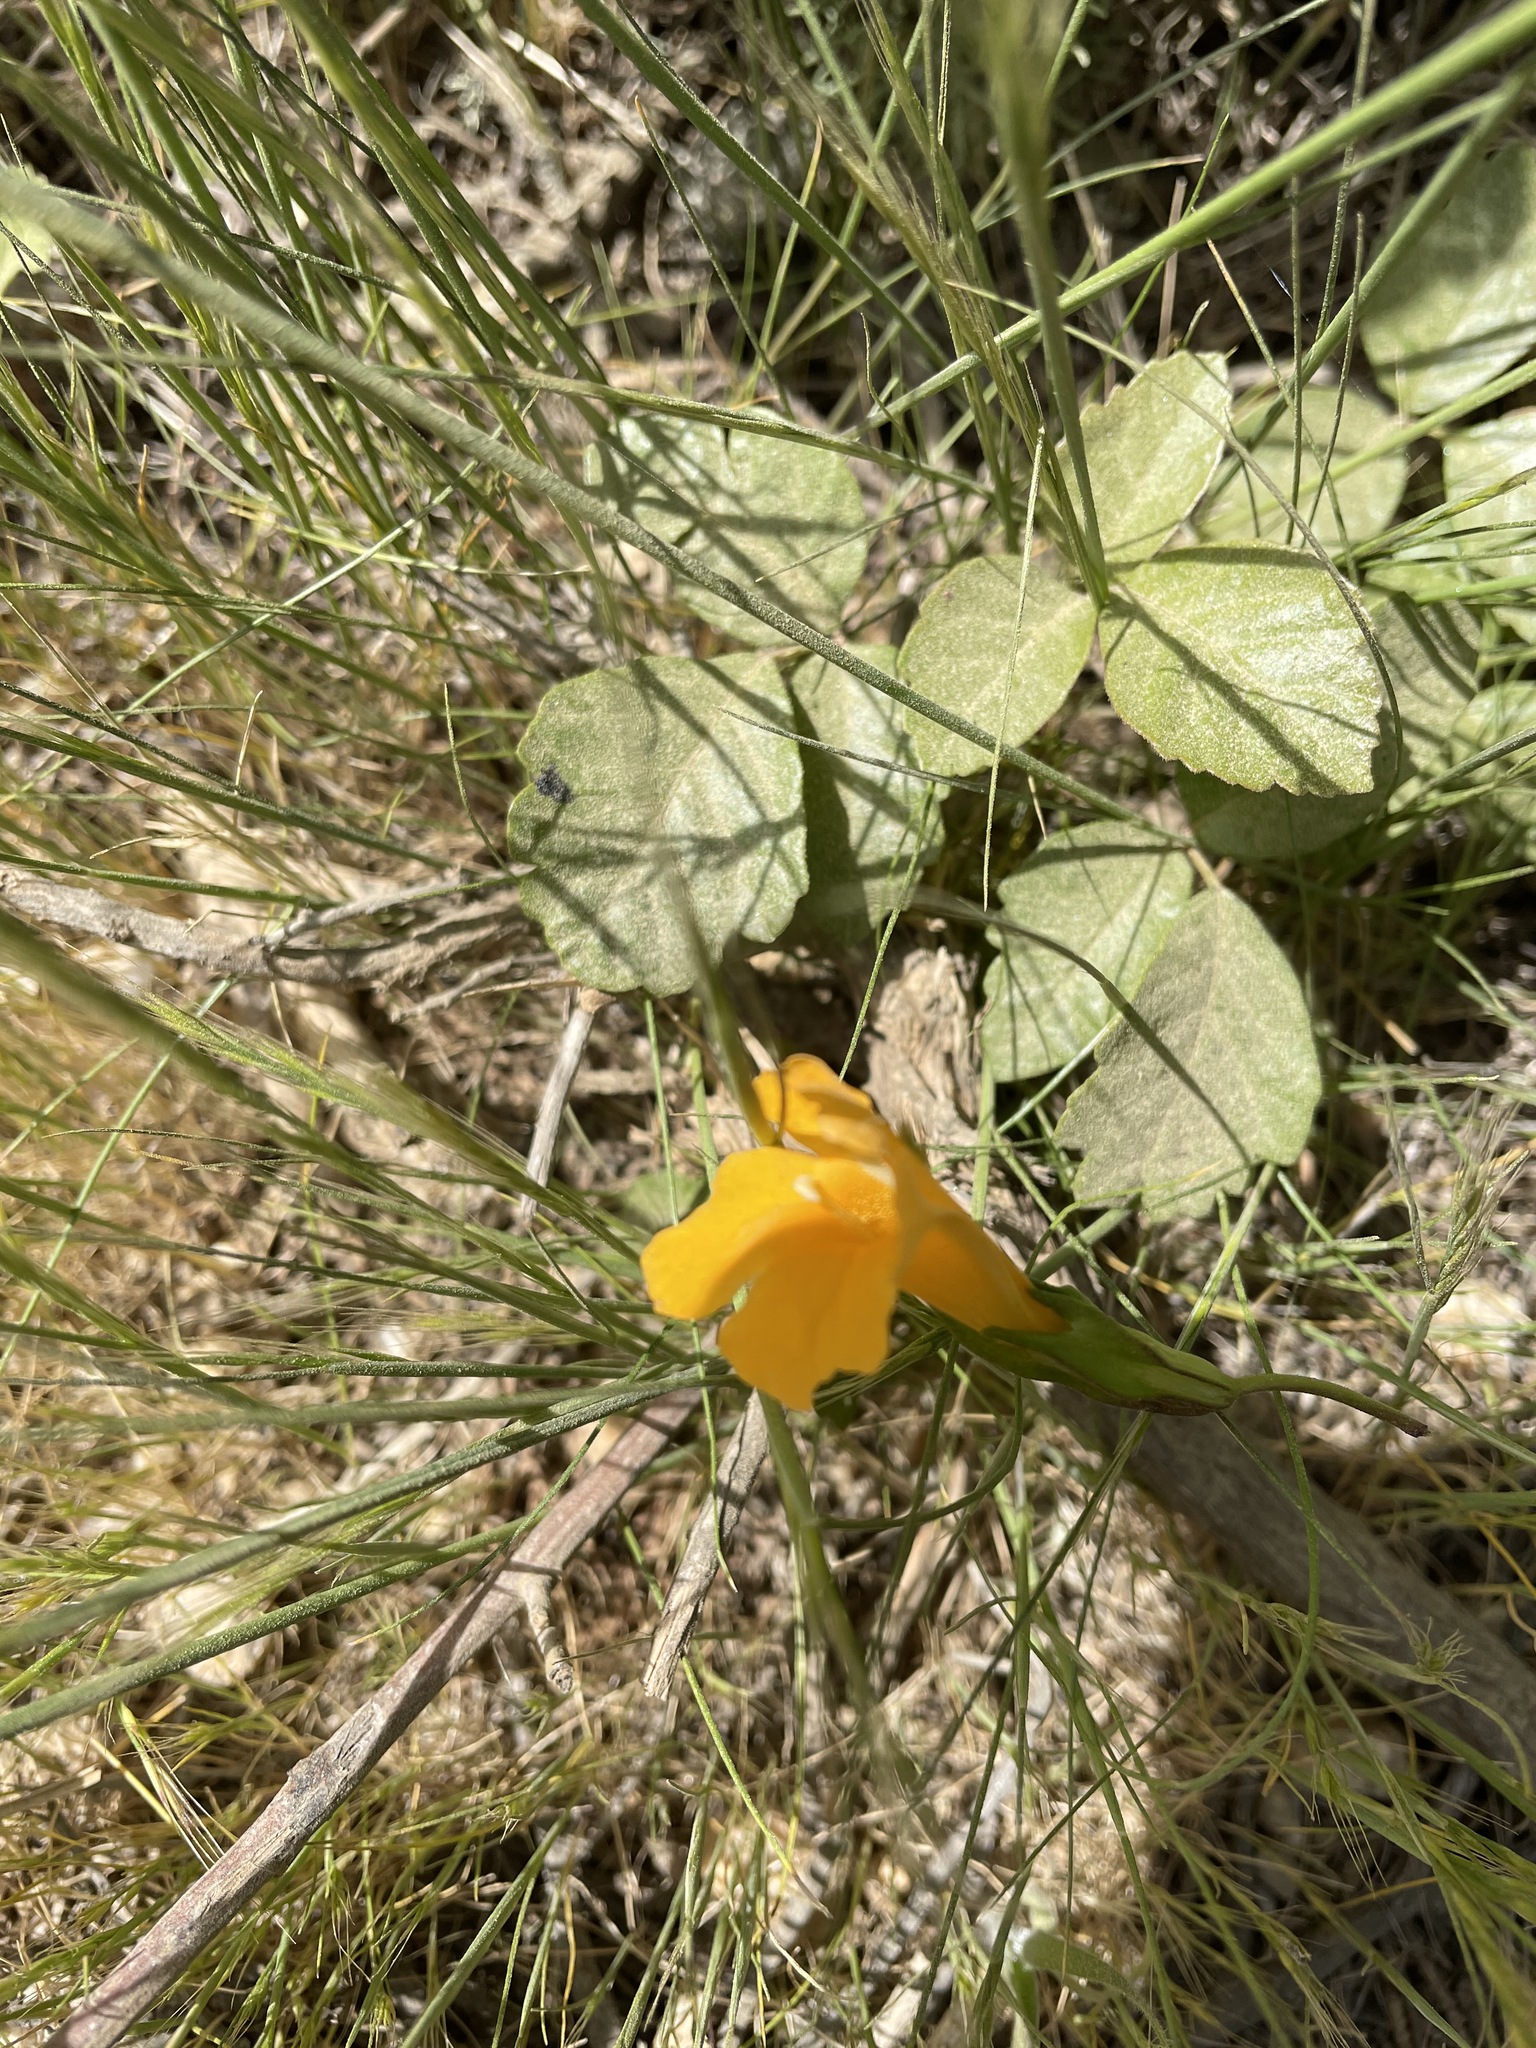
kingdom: Plantae
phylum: Tracheophyta
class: Magnoliopsida
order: Lamiales
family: Phrymaceae
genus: Diplacus
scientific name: Diplacus aurantiacus
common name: Bush monkey-flower
